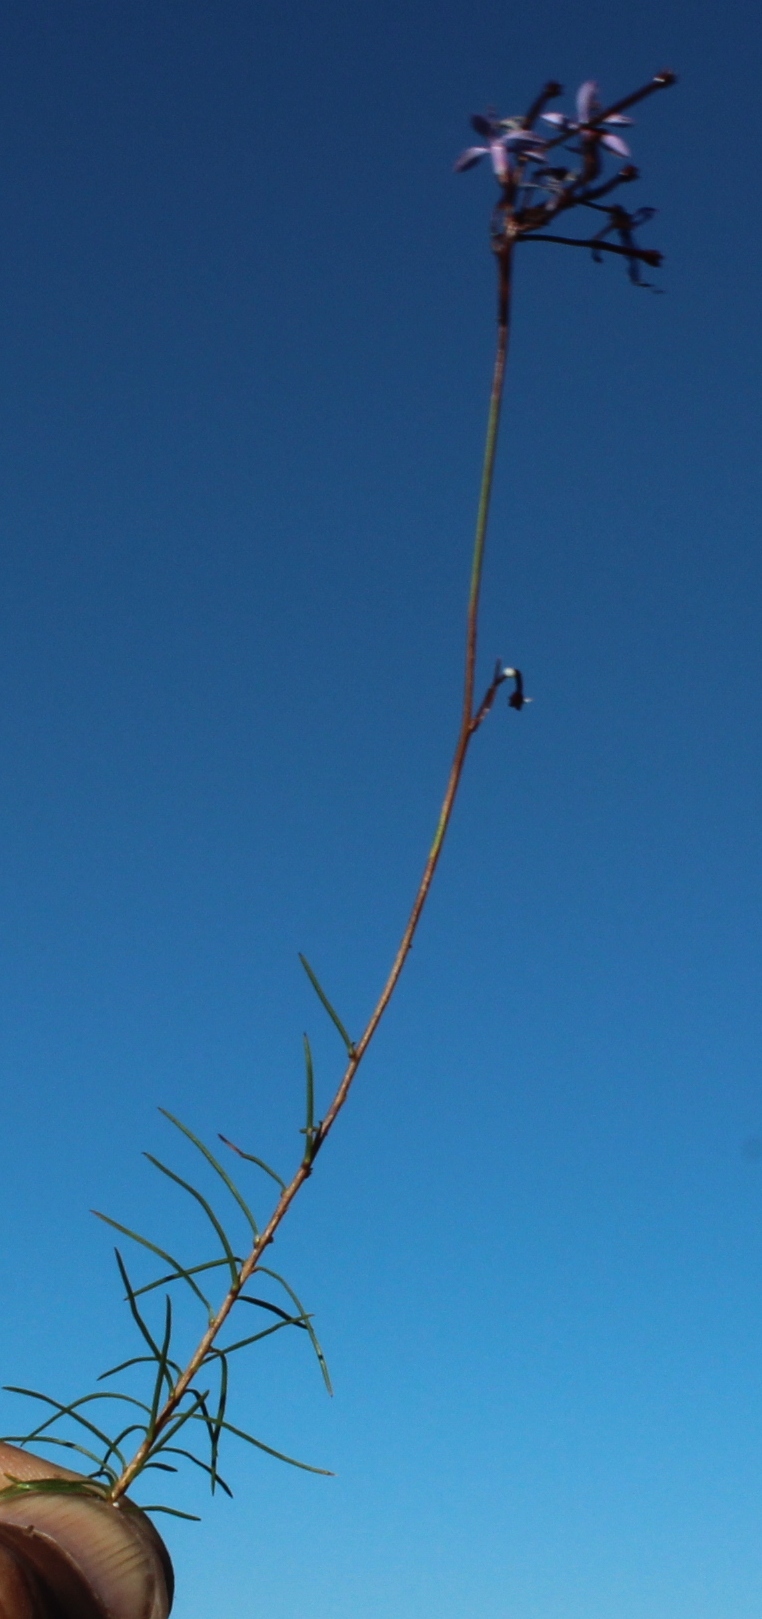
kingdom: Plantae
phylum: Tracheophyta
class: Magnoliopsida
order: Asterales
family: Campanulaceae
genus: Prismatocarpus
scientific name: Prismatocarpus diffusus
